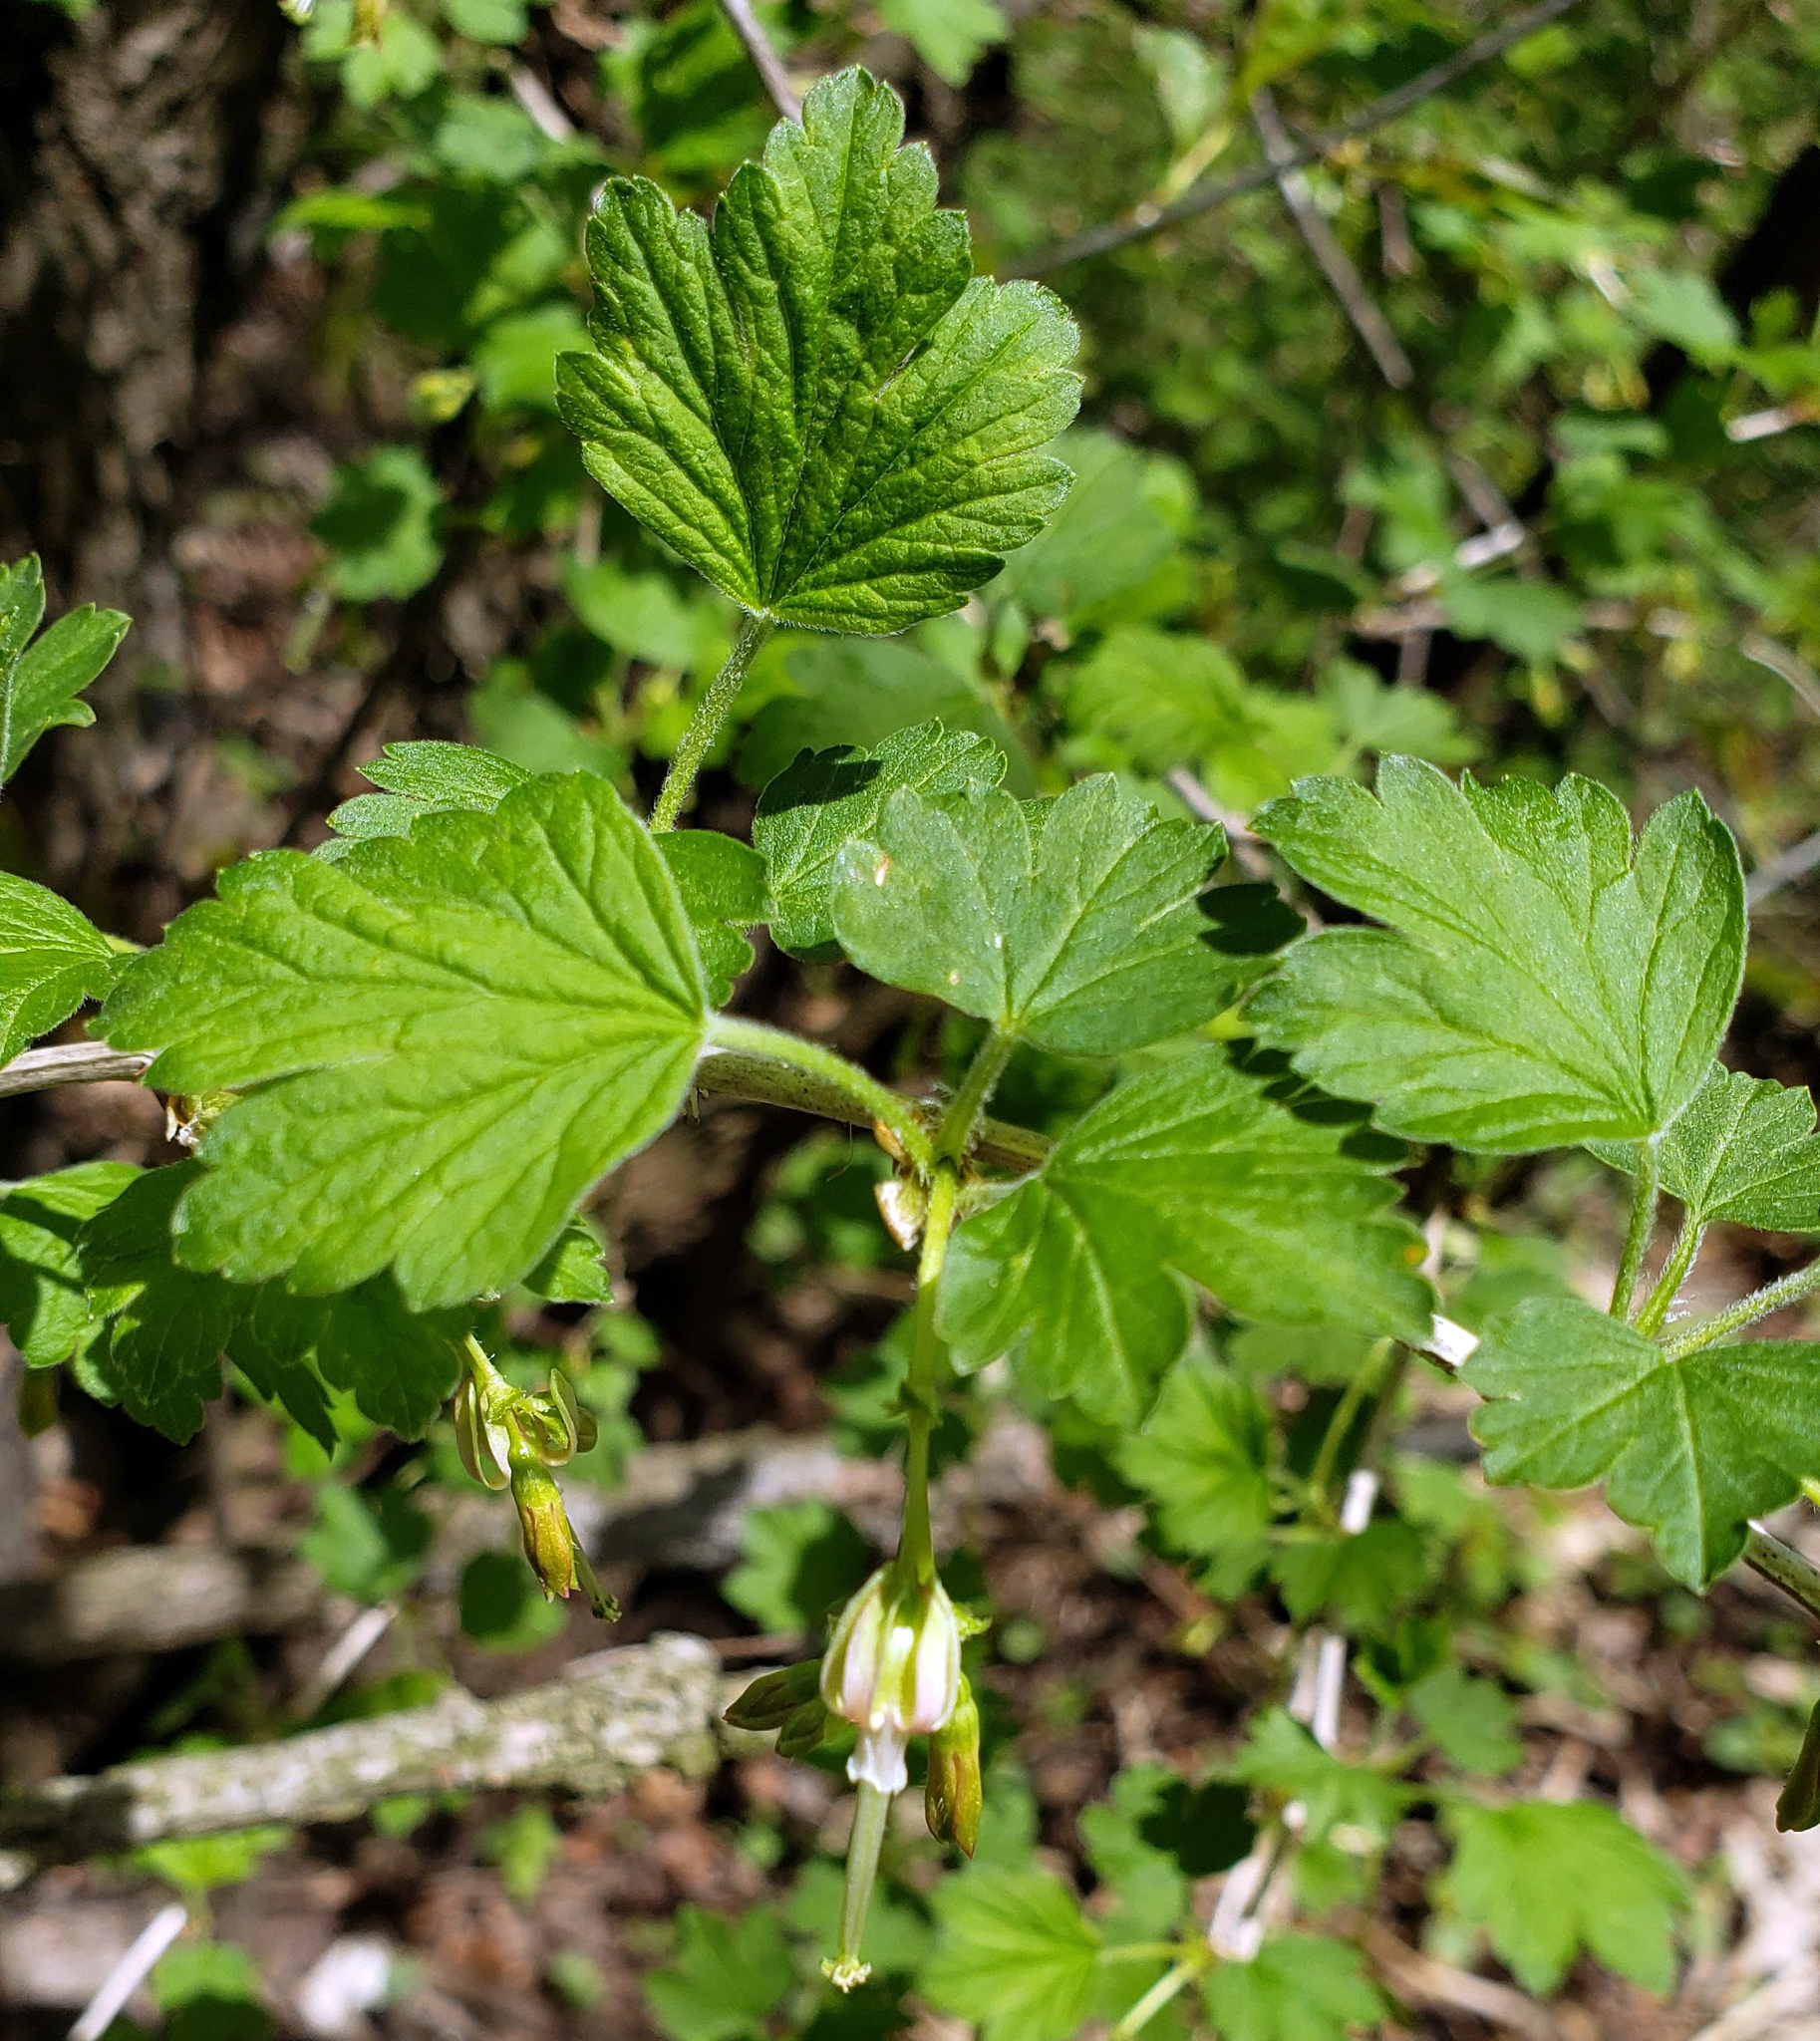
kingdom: Plantae
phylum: Tracheophyta
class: Magnoliopsida
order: Saxifragales
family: Grossulariaceae
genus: Ribes
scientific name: Ribes missouriense
